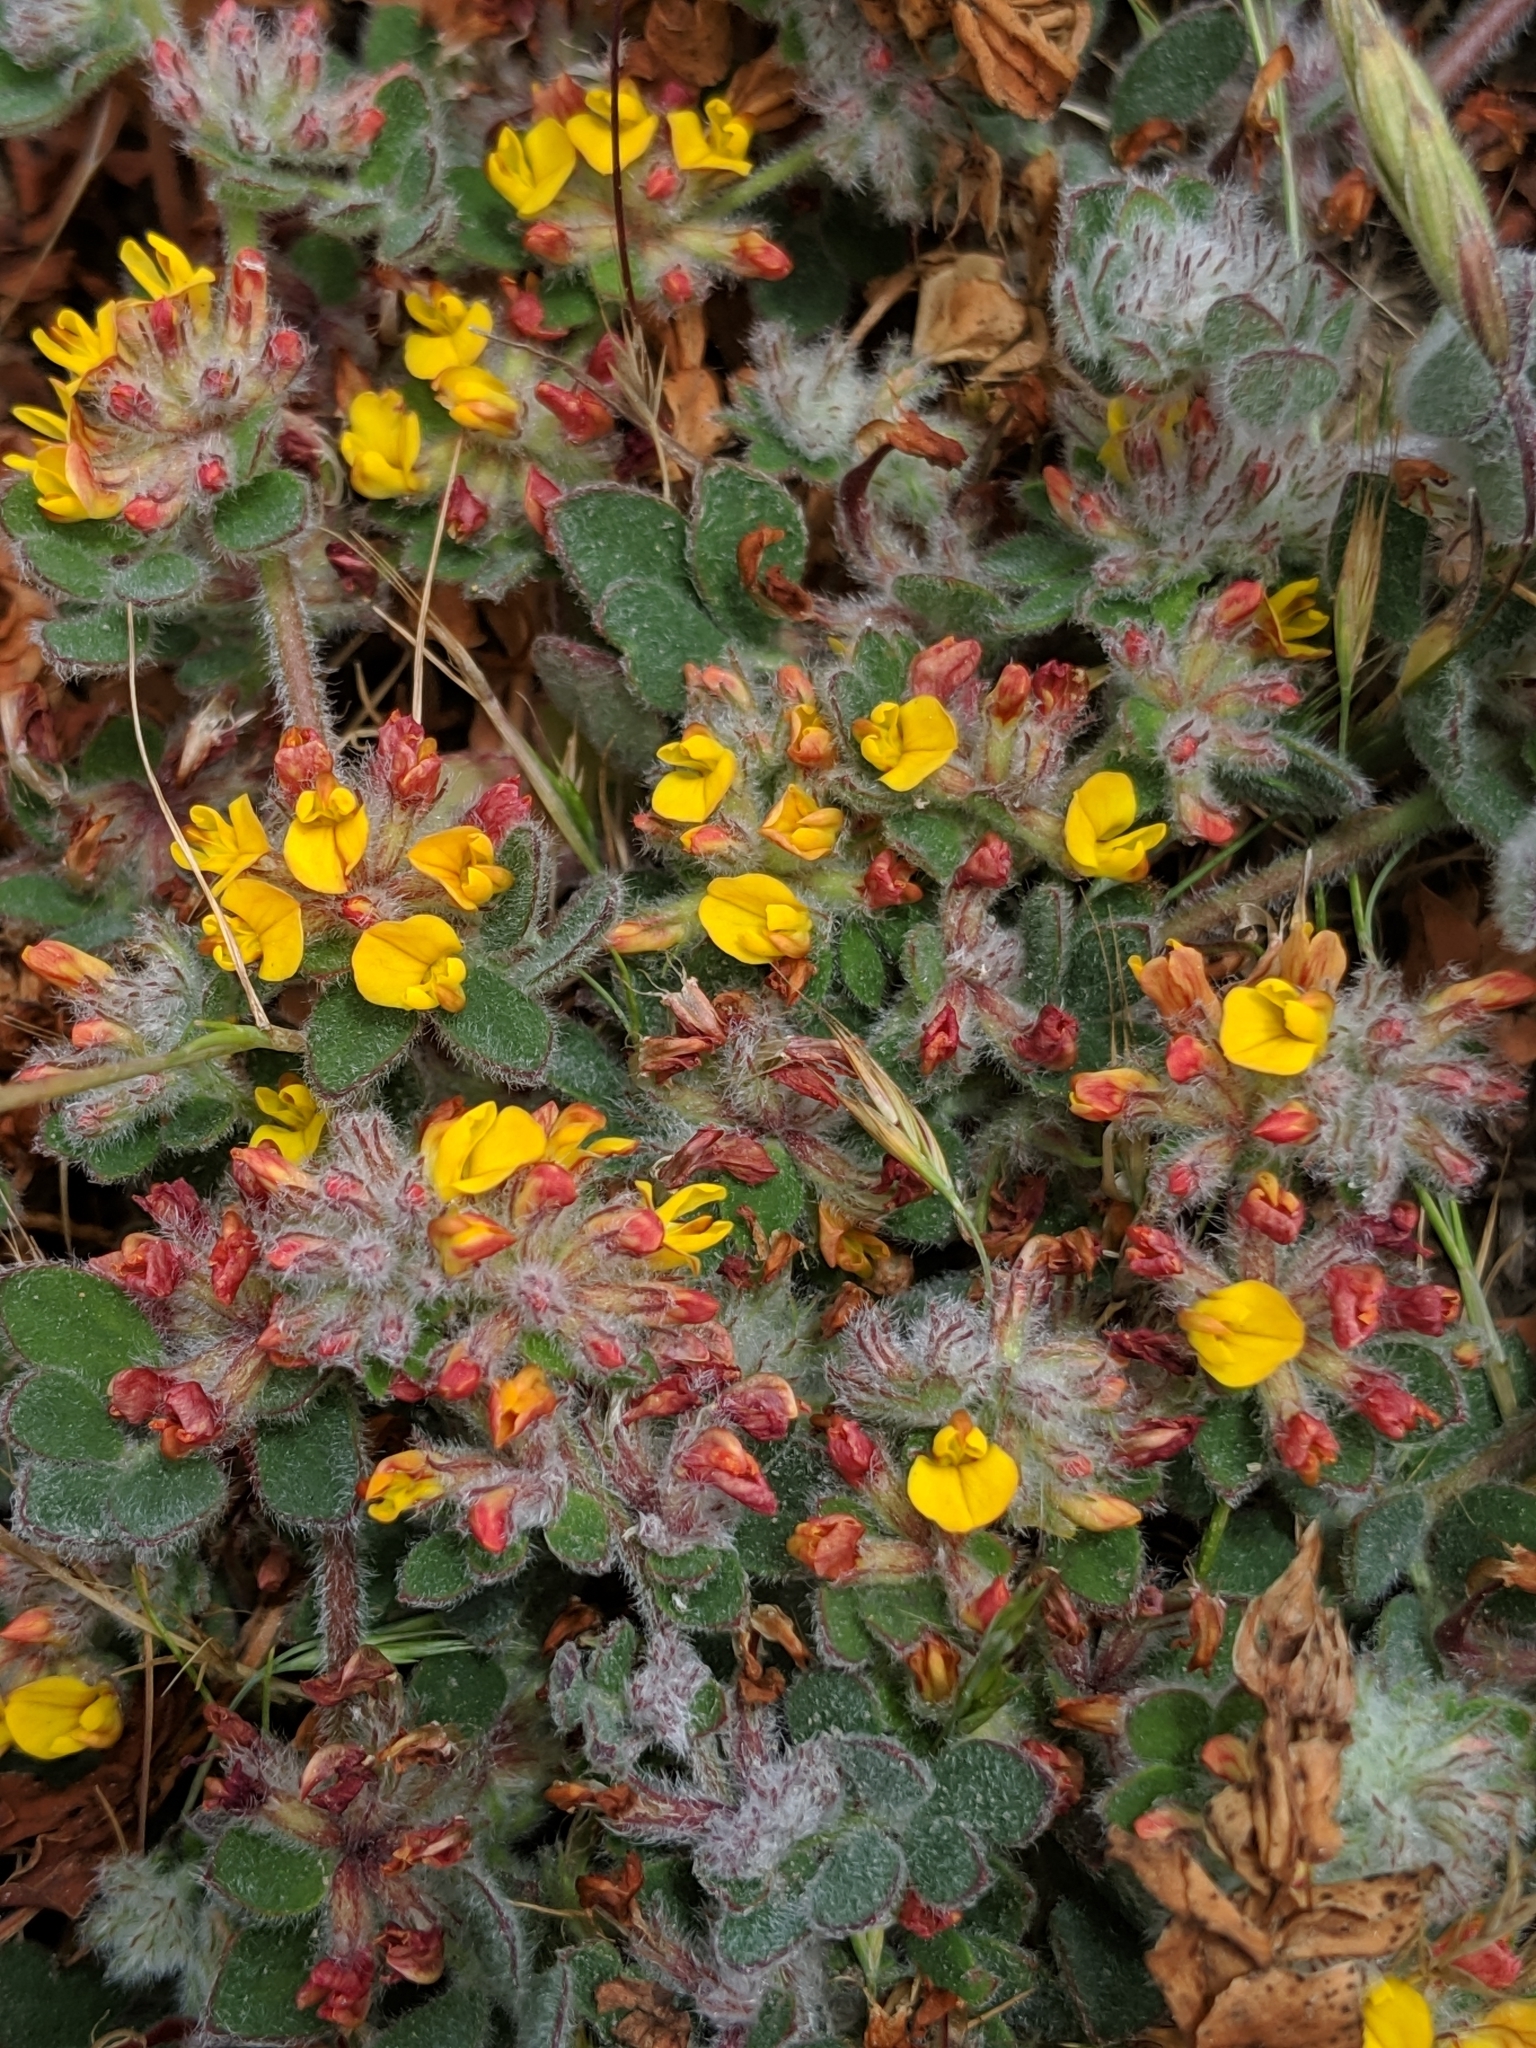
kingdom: Plantae
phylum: Tracheophyta
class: Magnoliopsida
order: Fabales
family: Fabaceae
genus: Acmispon
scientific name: Acmispon tomentosus
